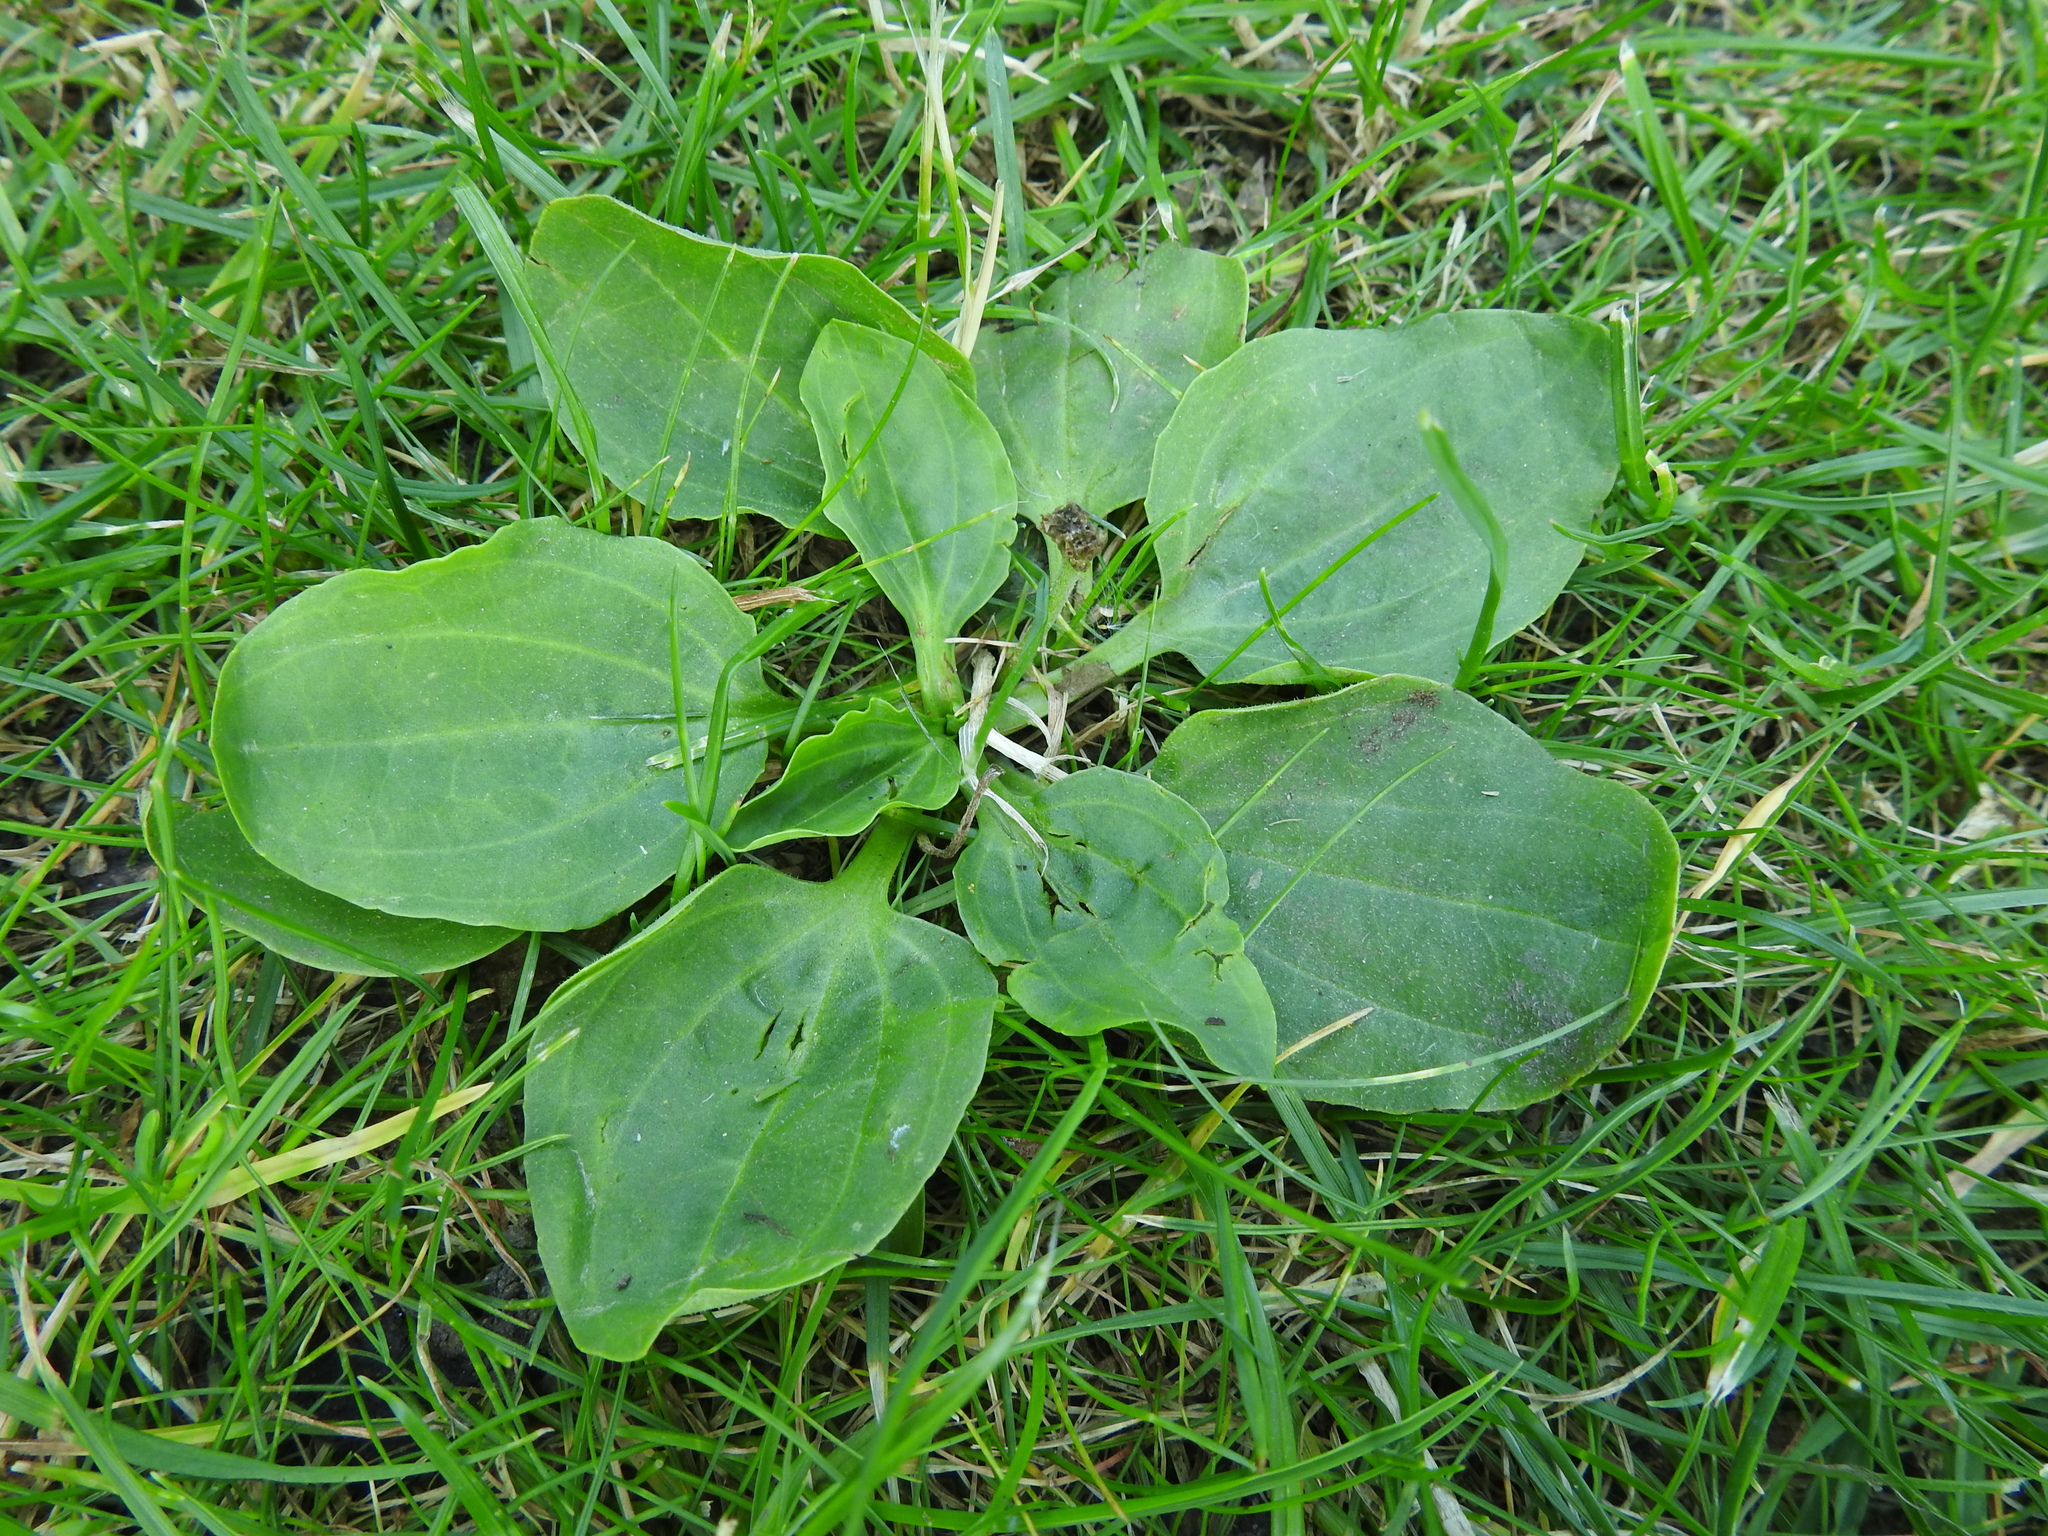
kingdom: Plantae
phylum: Tracheophyta
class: Magnoliopsida
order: Lamiales
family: Plantaginaceae
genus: Plantago
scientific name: Plantago major
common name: Common plantain
